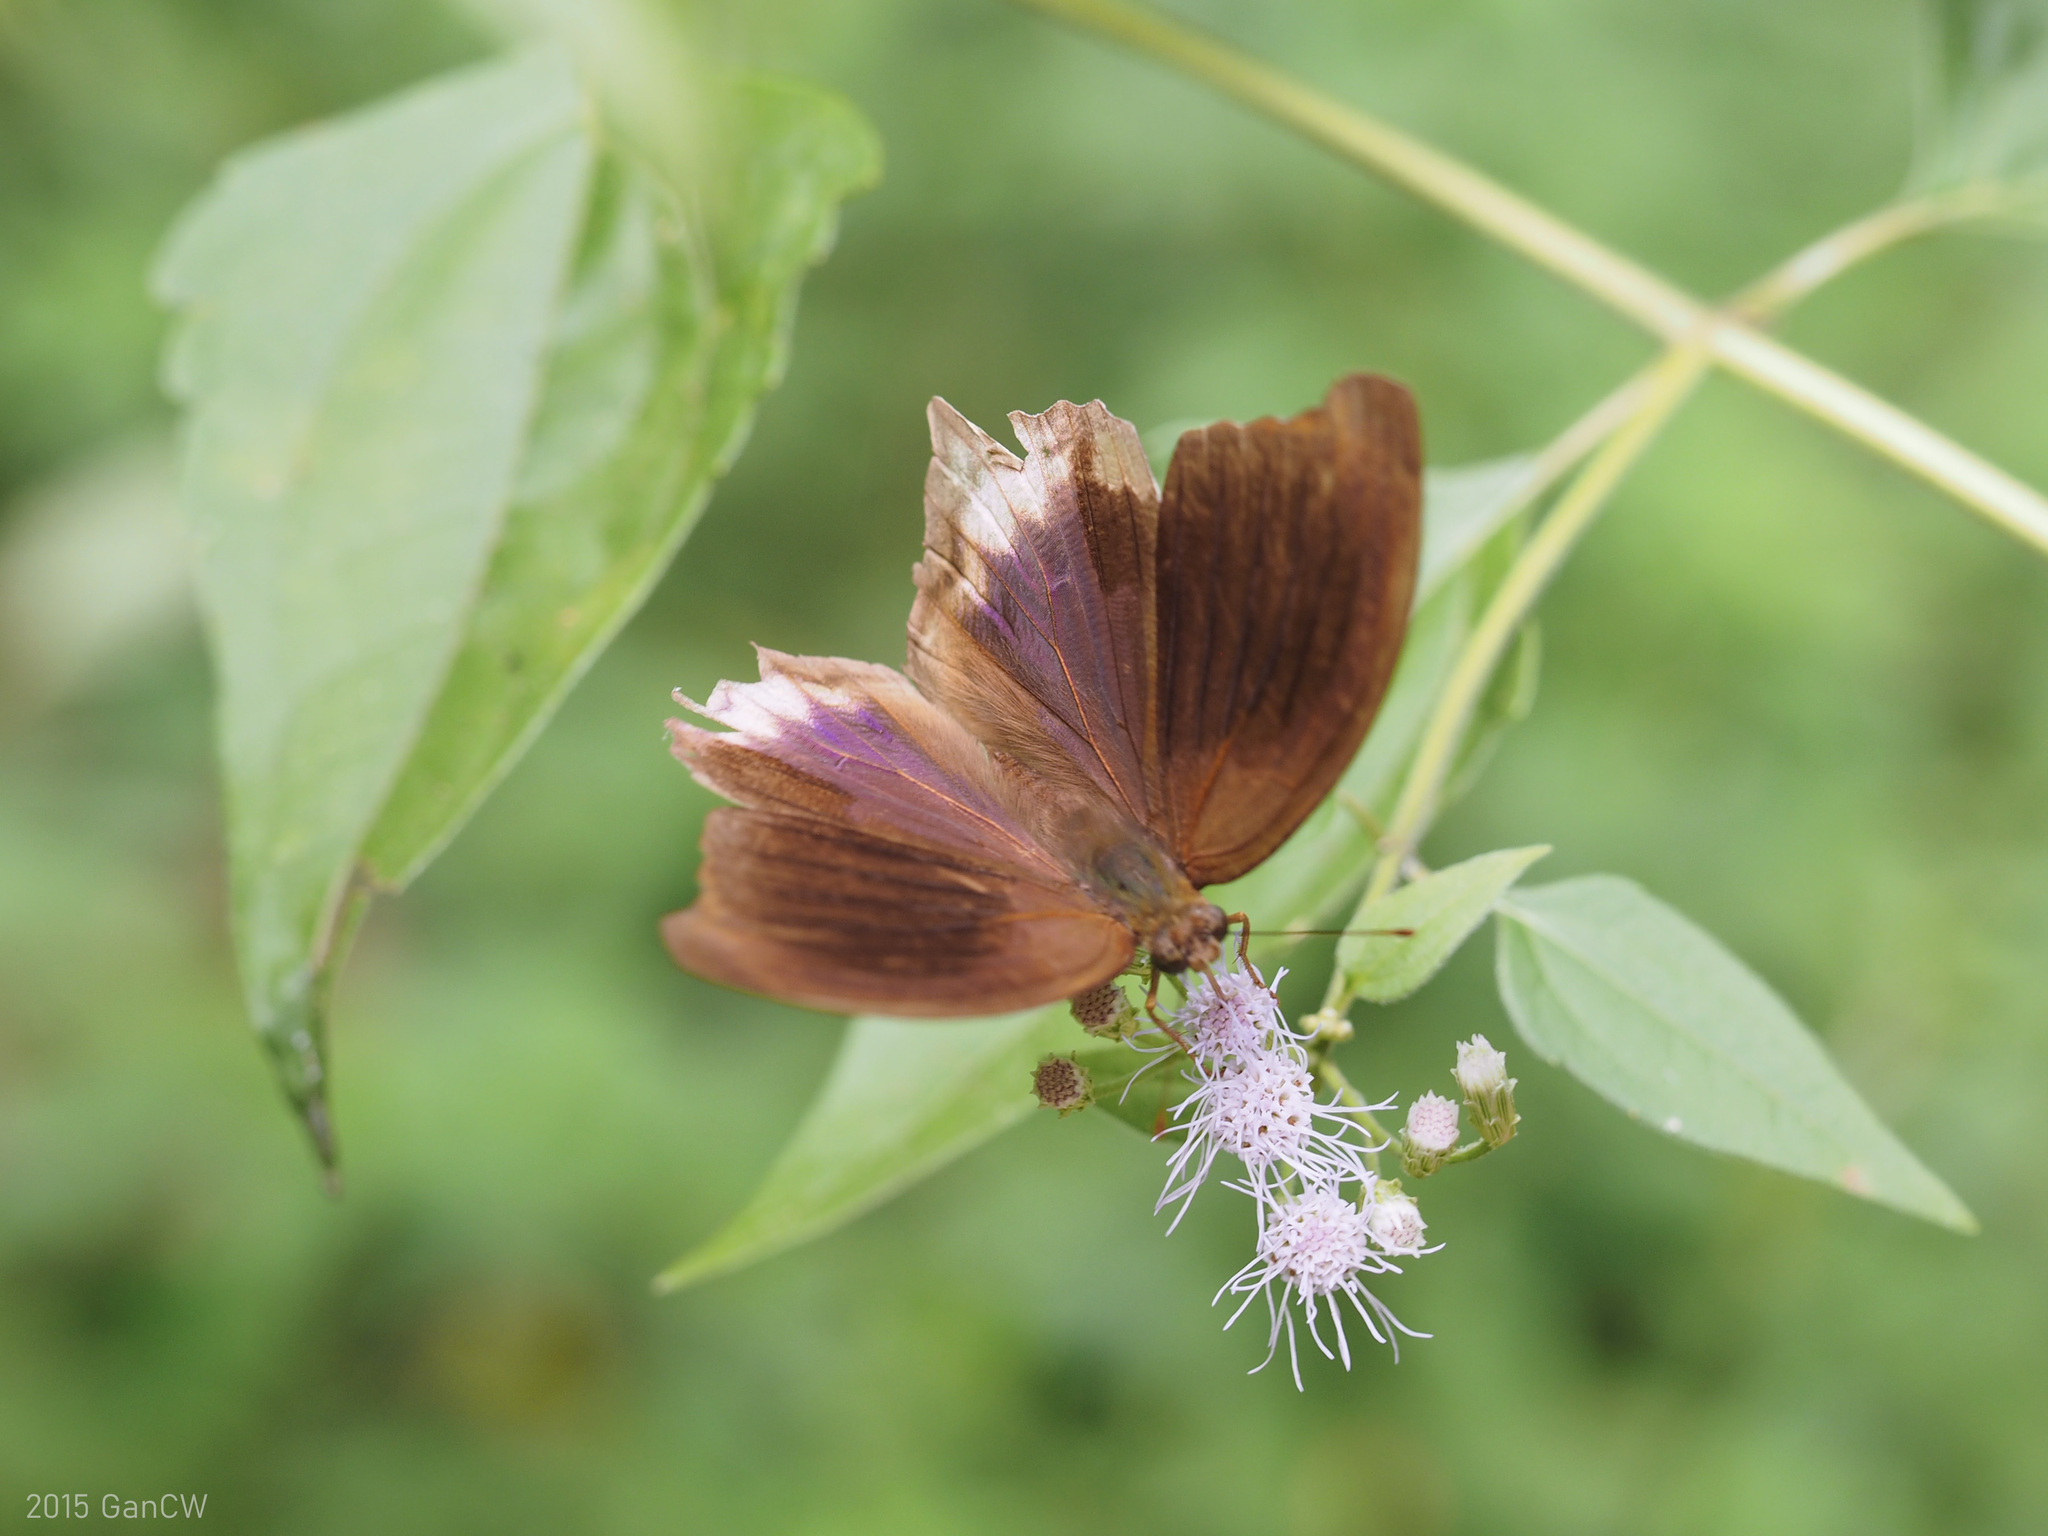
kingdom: Animalia
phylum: Arthropoda
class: Insecta
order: Lepidoptera
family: Nymphalidae
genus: Terinos
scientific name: Terinos atlita
